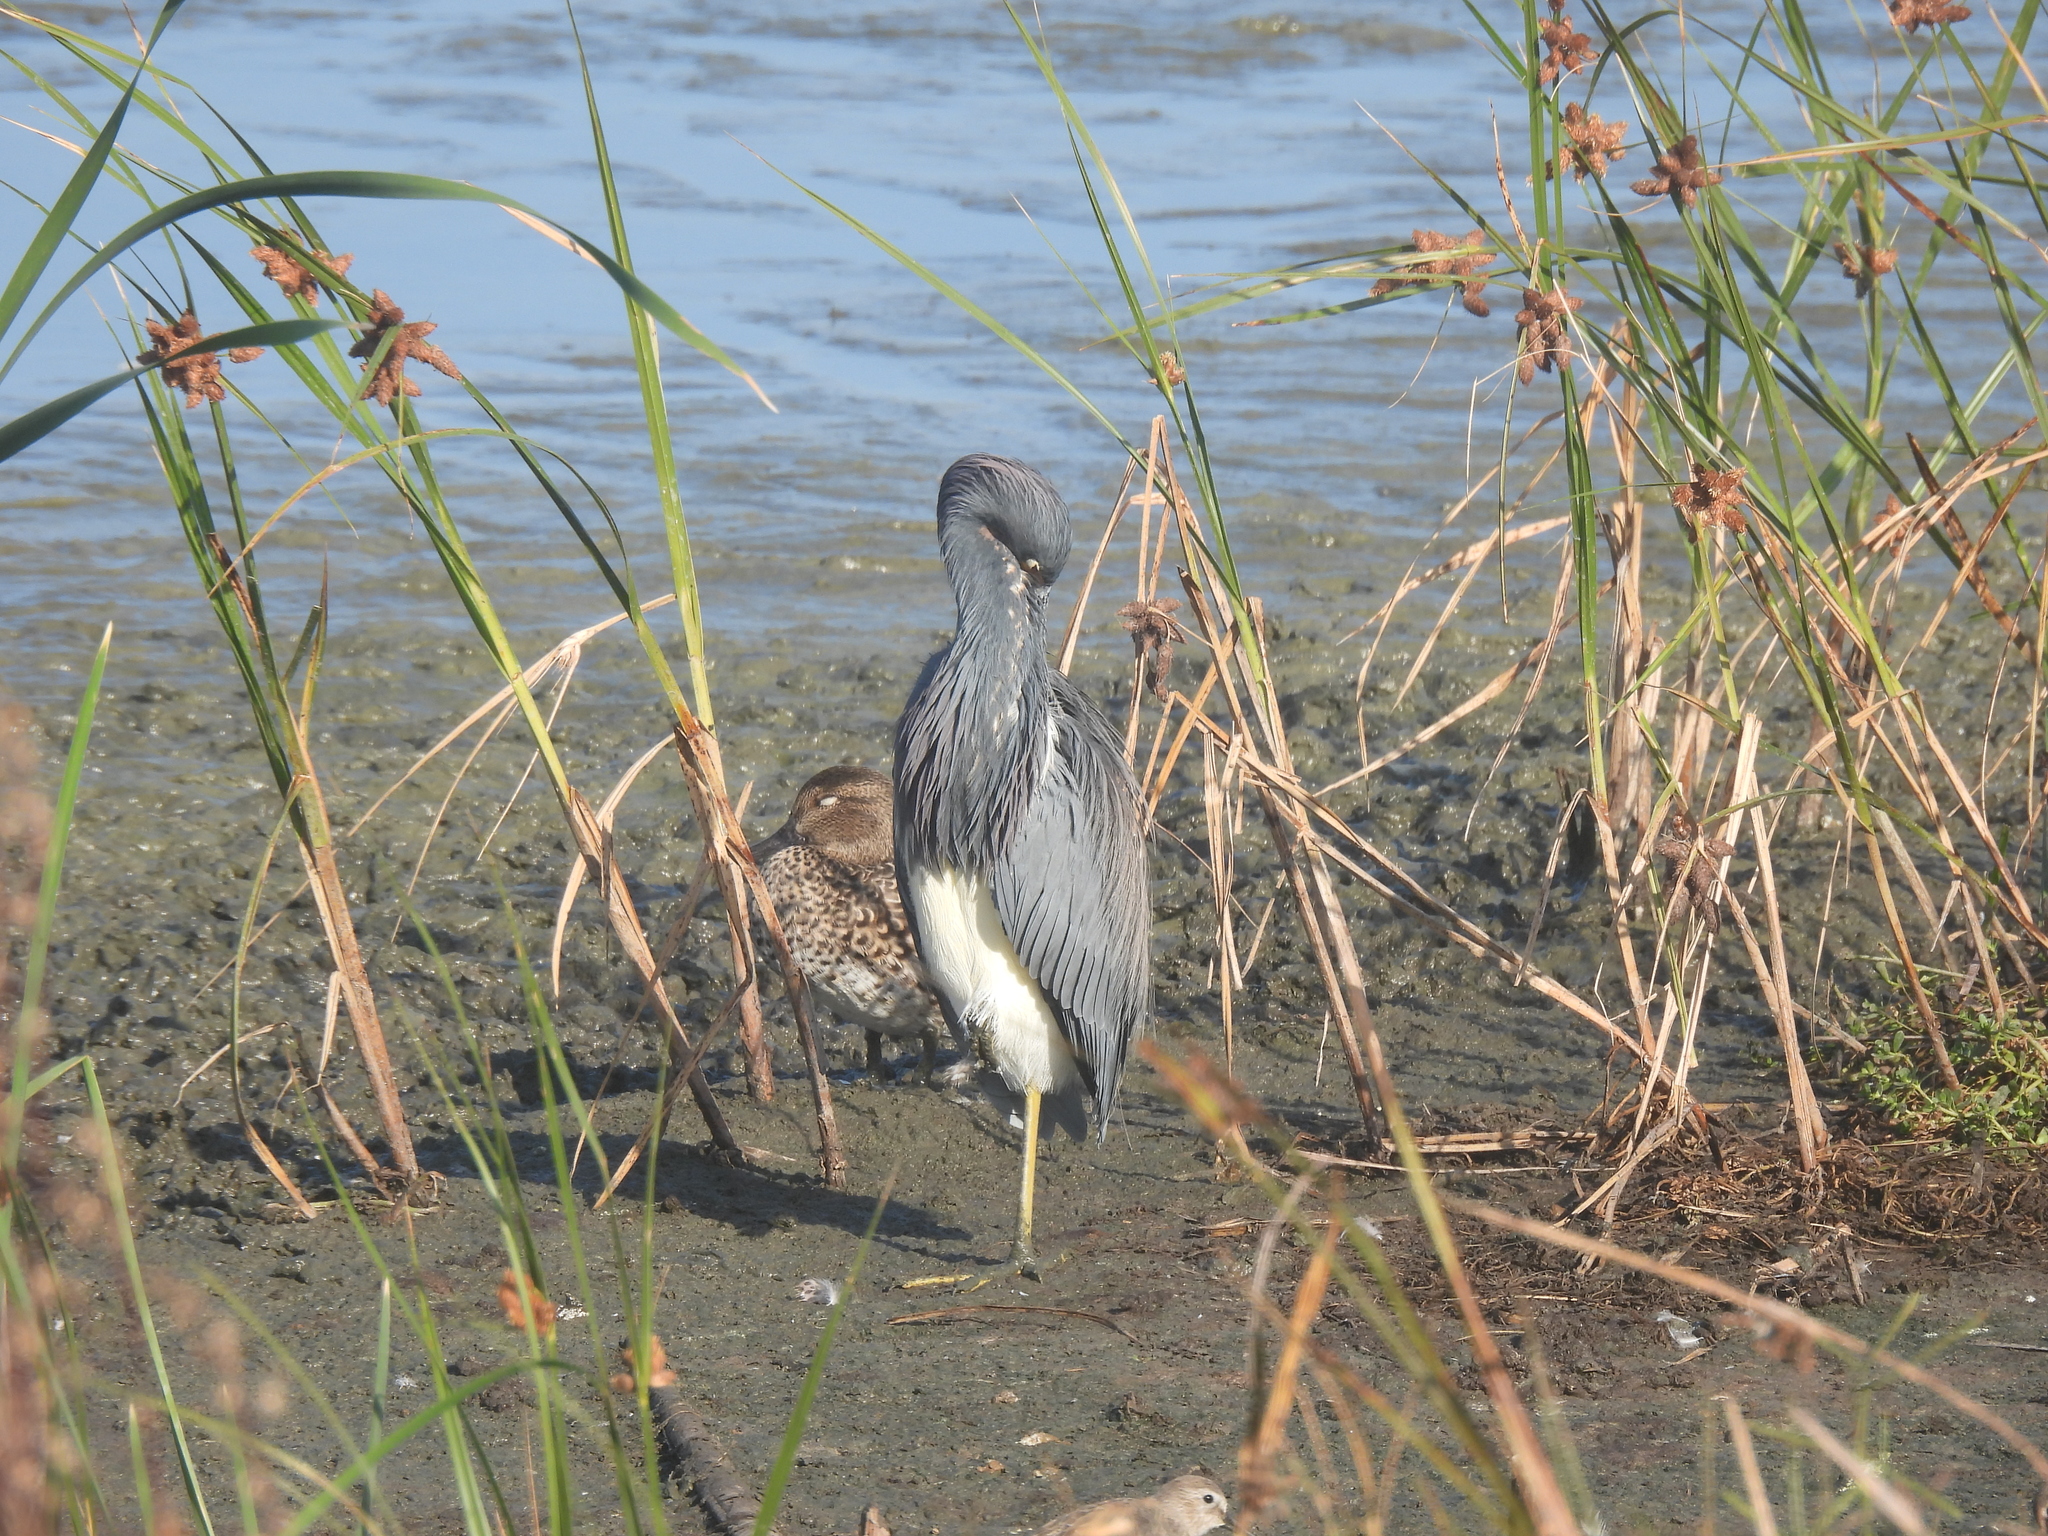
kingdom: Animalia
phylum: Chordata
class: Aves
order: Pelecaniformes
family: Ardeidae
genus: Egretta
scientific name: Egretta tricolor
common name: Tricolored heron
